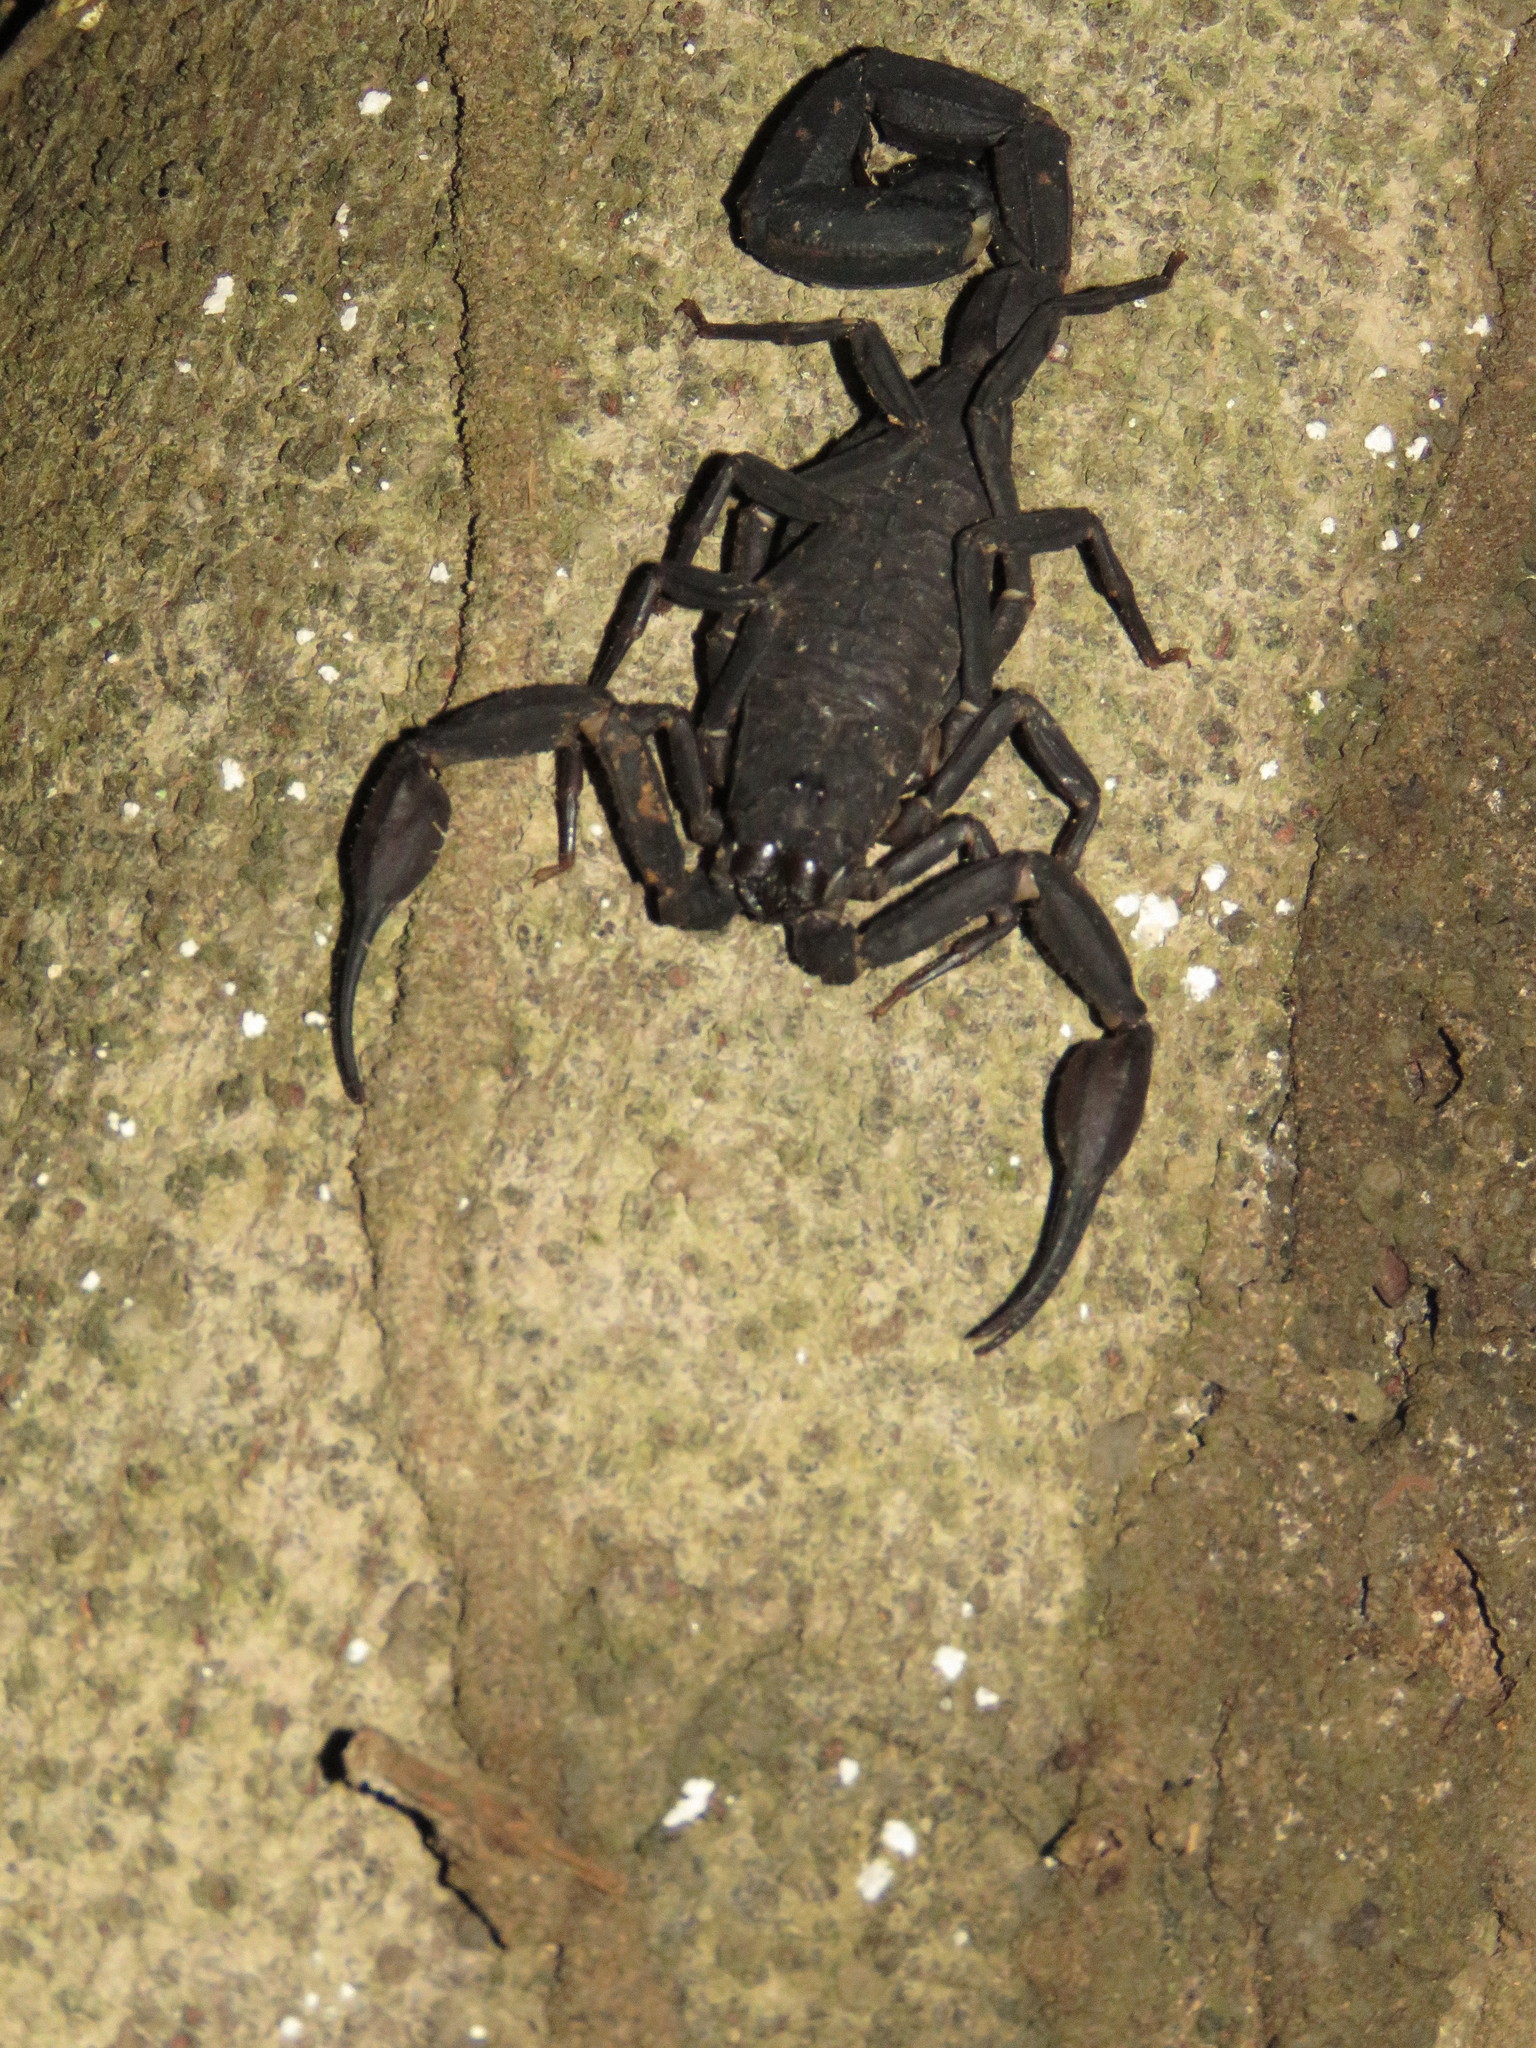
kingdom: Animalia
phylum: Arthropoda
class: Arachnida
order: Scorpiones
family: Buthidae
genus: Tityus
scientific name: Tityus metuendus
